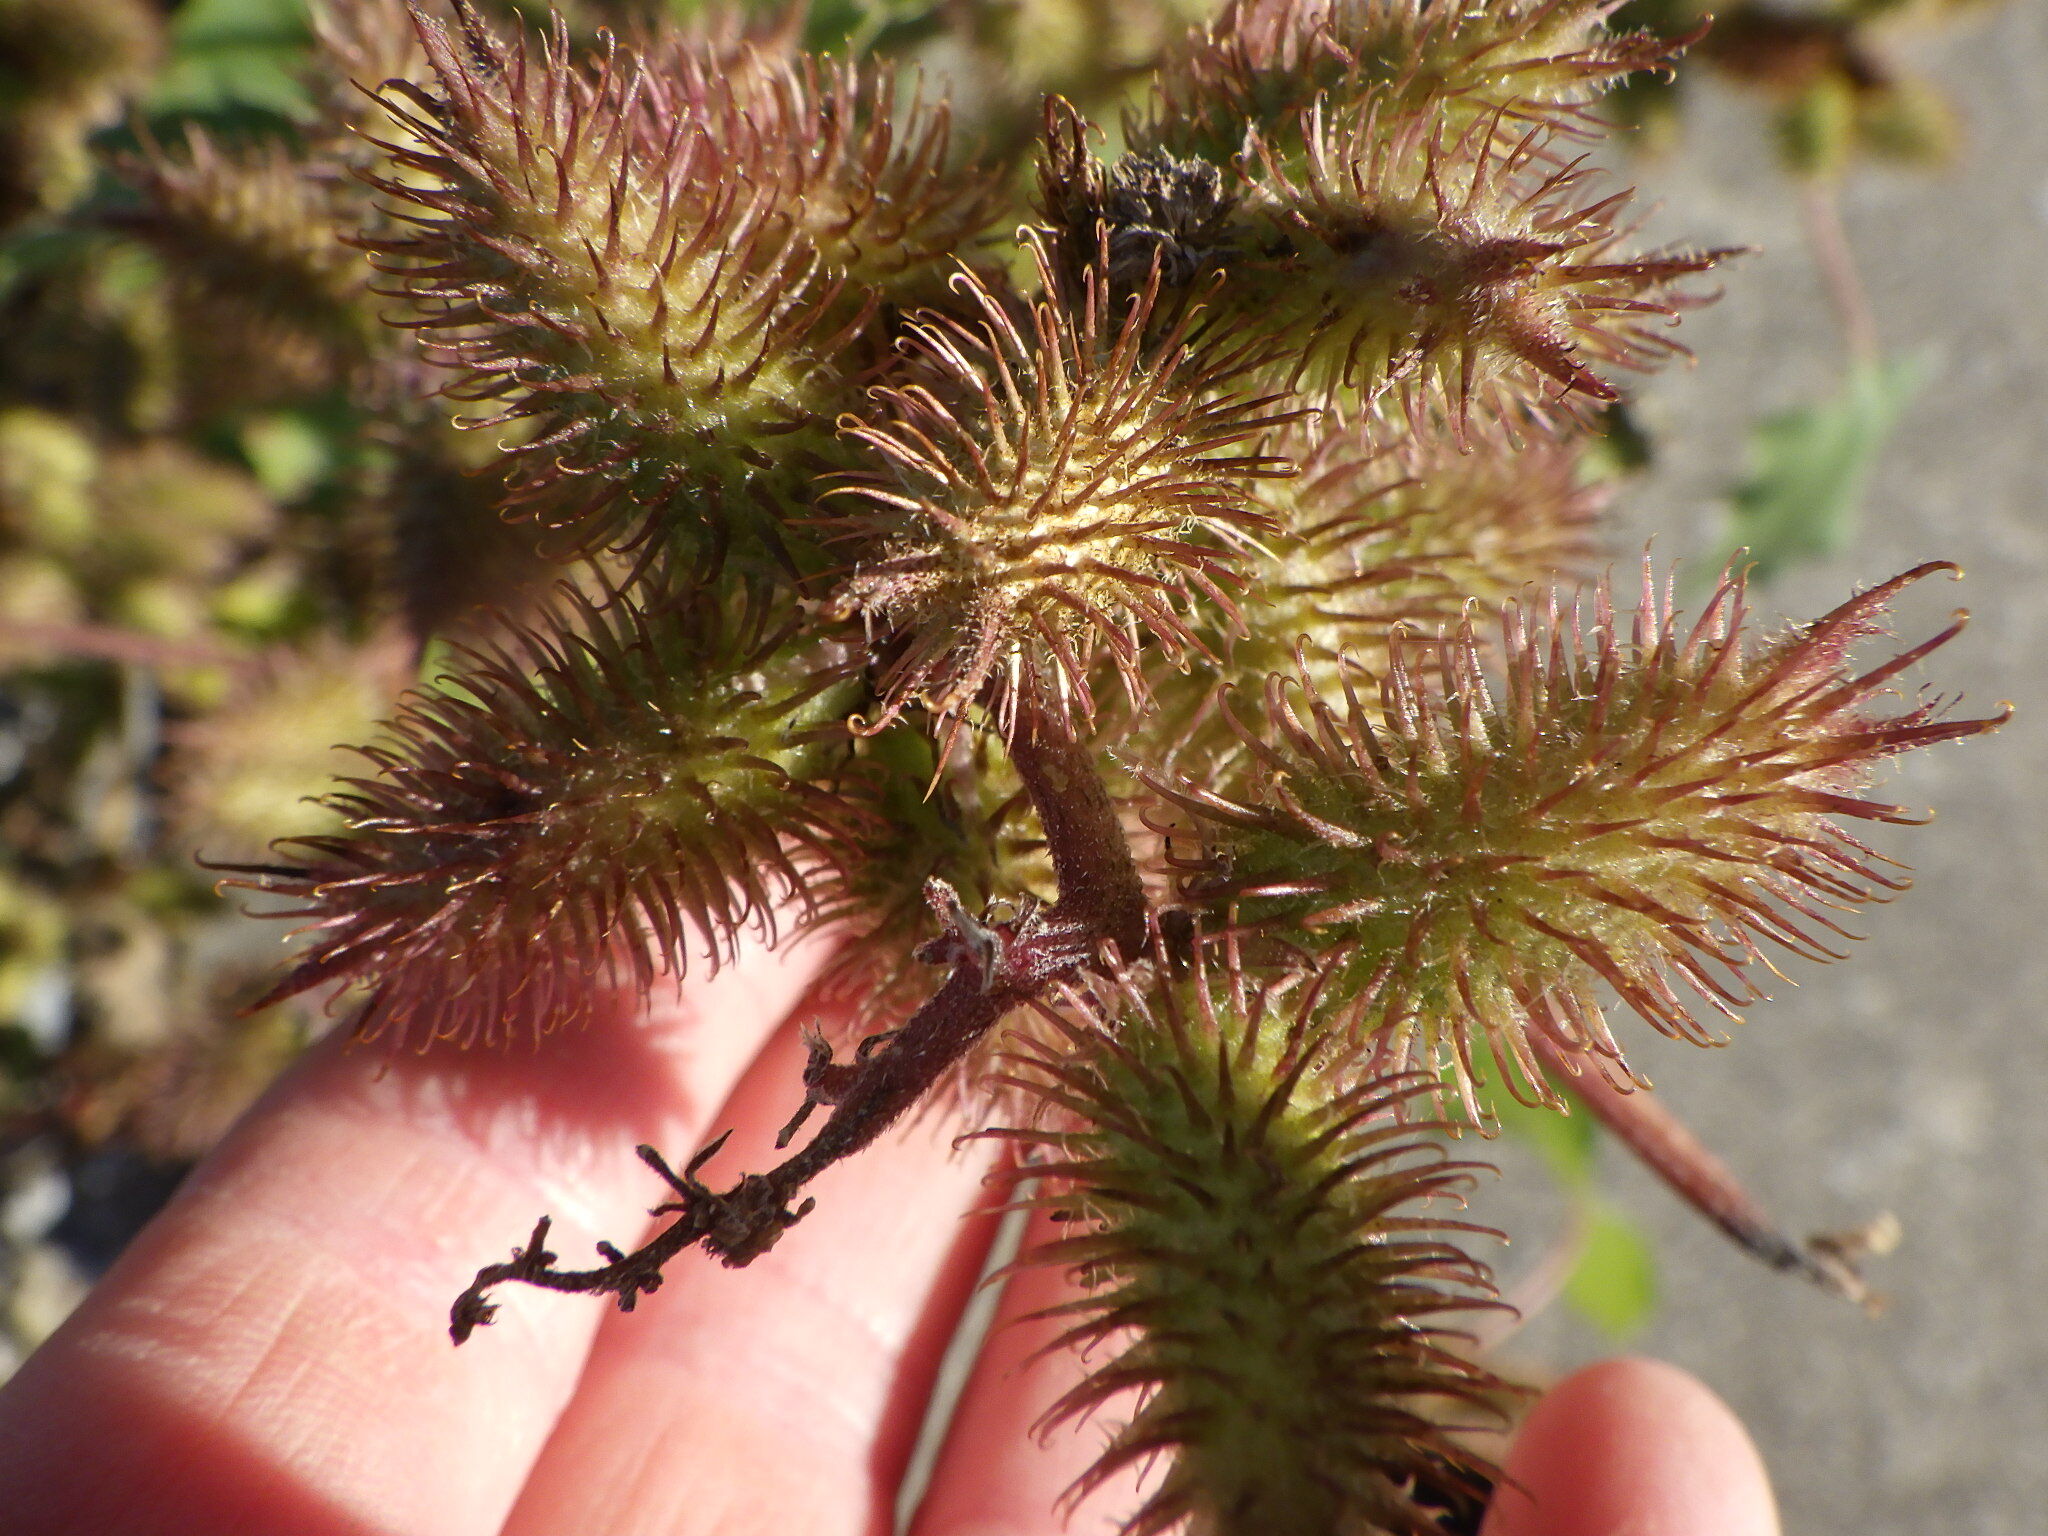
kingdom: Plantae
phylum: Tracheophyta
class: Magnoliopsida
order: Asterales
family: Asteraceae
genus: Xanthium
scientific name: Xanthium strumarium
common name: Rough cocklebur
